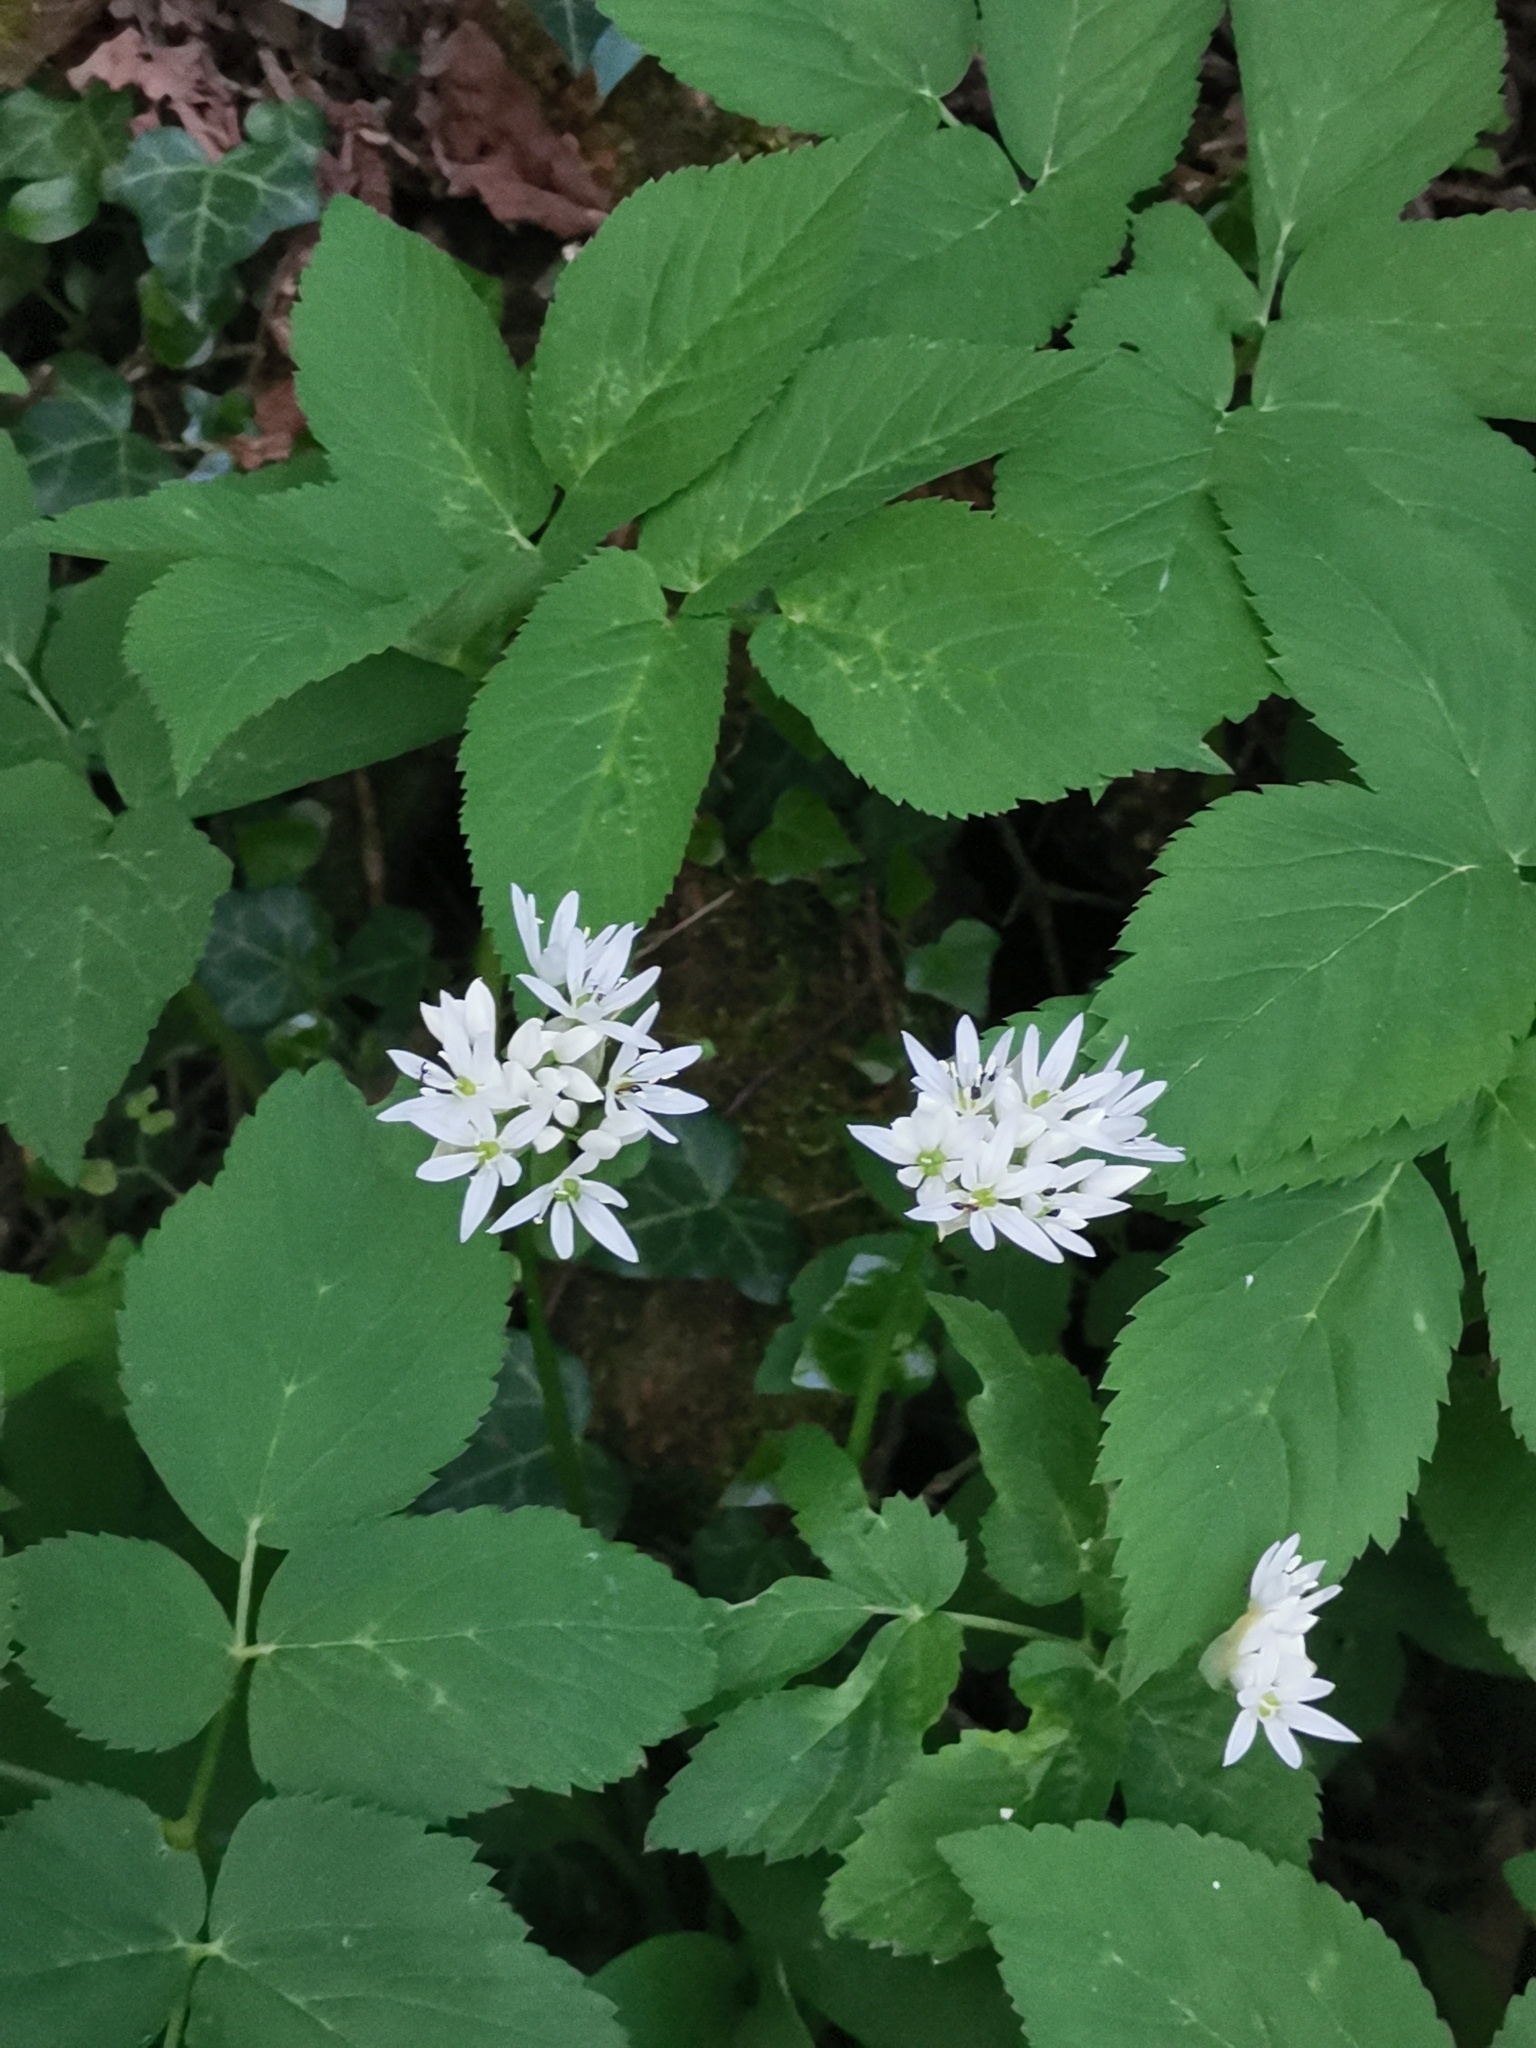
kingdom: Plantae
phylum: Tracheophyta
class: Liliopsida
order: Asparagales
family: Amaryllidaceae
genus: Allium
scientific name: Allium ursinum
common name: Ramsons
